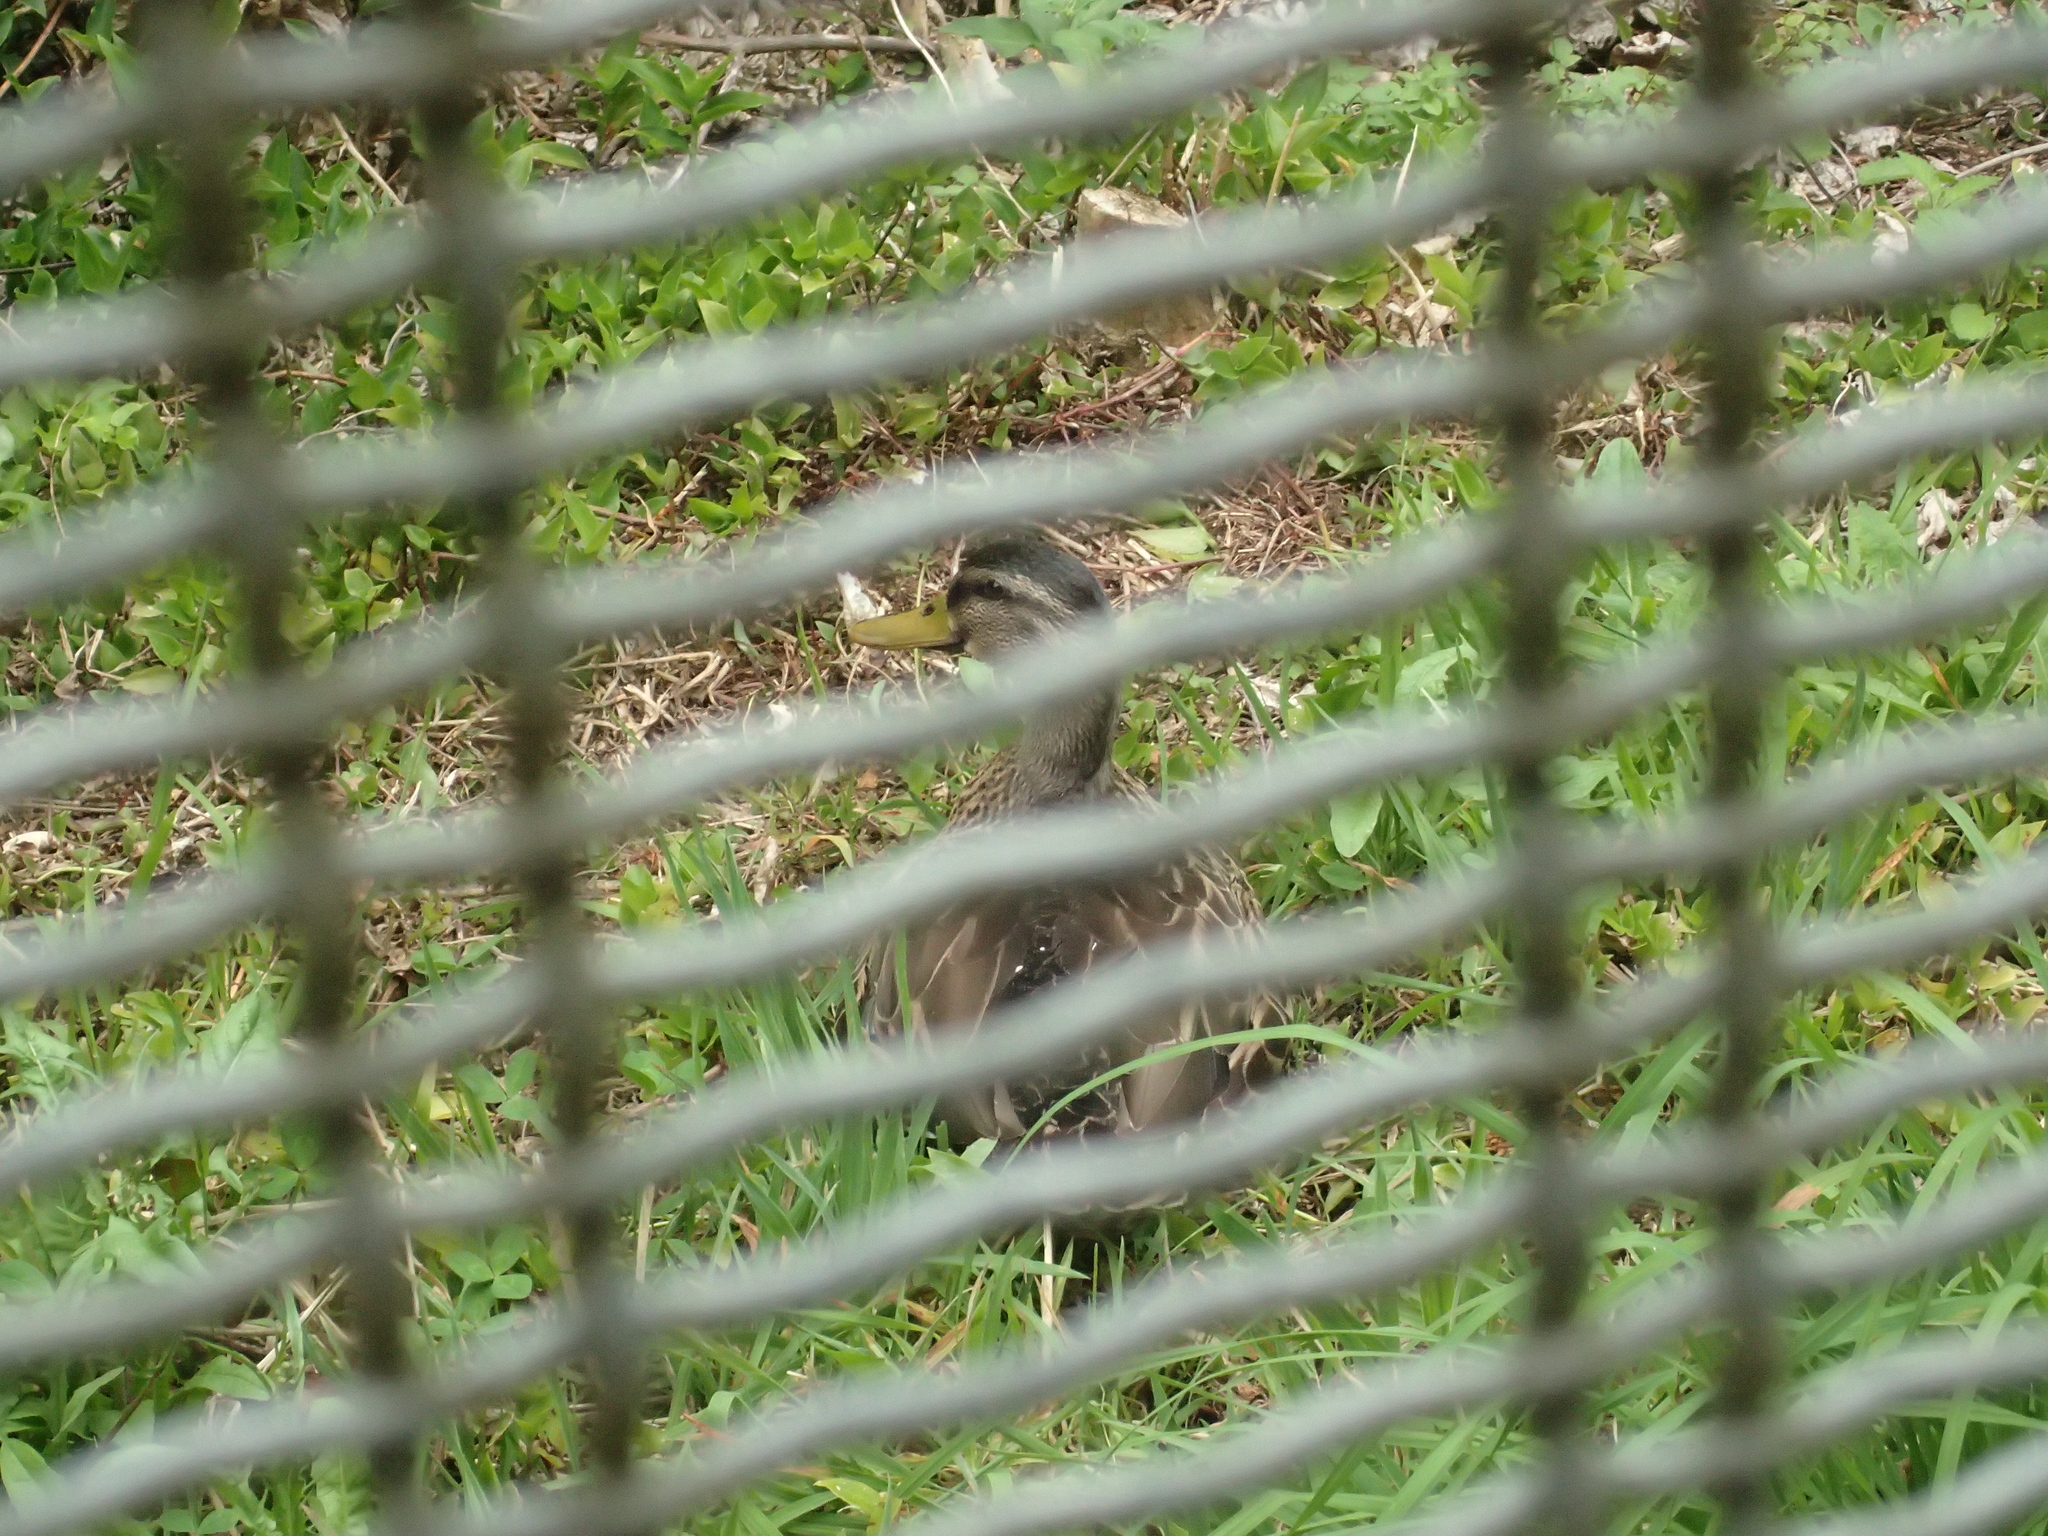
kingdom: Animalia
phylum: Chordata
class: Aves
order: Anseriformes
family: Anatidae
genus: Anas
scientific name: Anas
